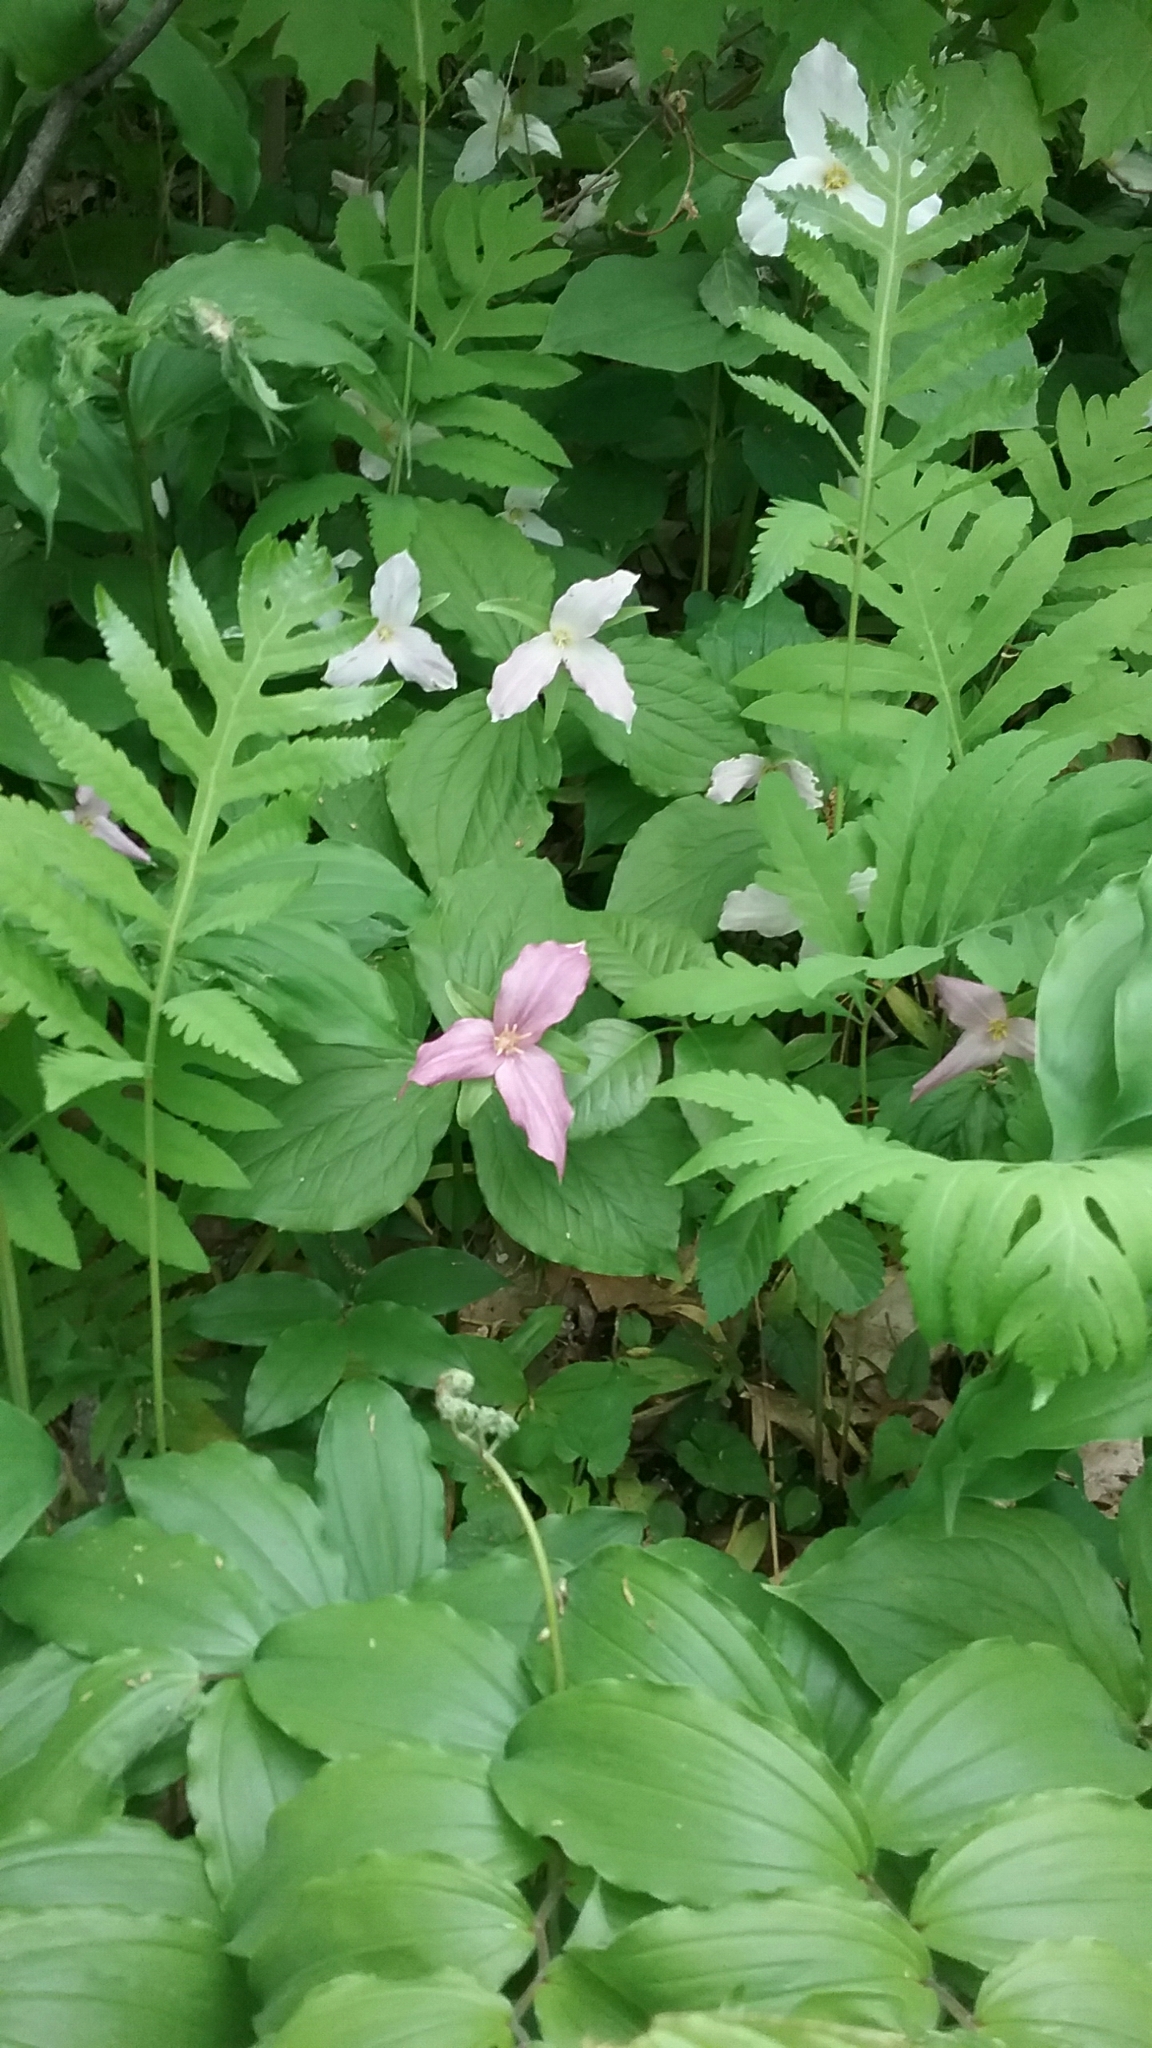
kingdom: Plantae
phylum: Tracheophyta
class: Liliopsida
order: Liliales
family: Melanthiaceae
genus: Trillium
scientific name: Trillium grandiflorum
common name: Great white trillium
